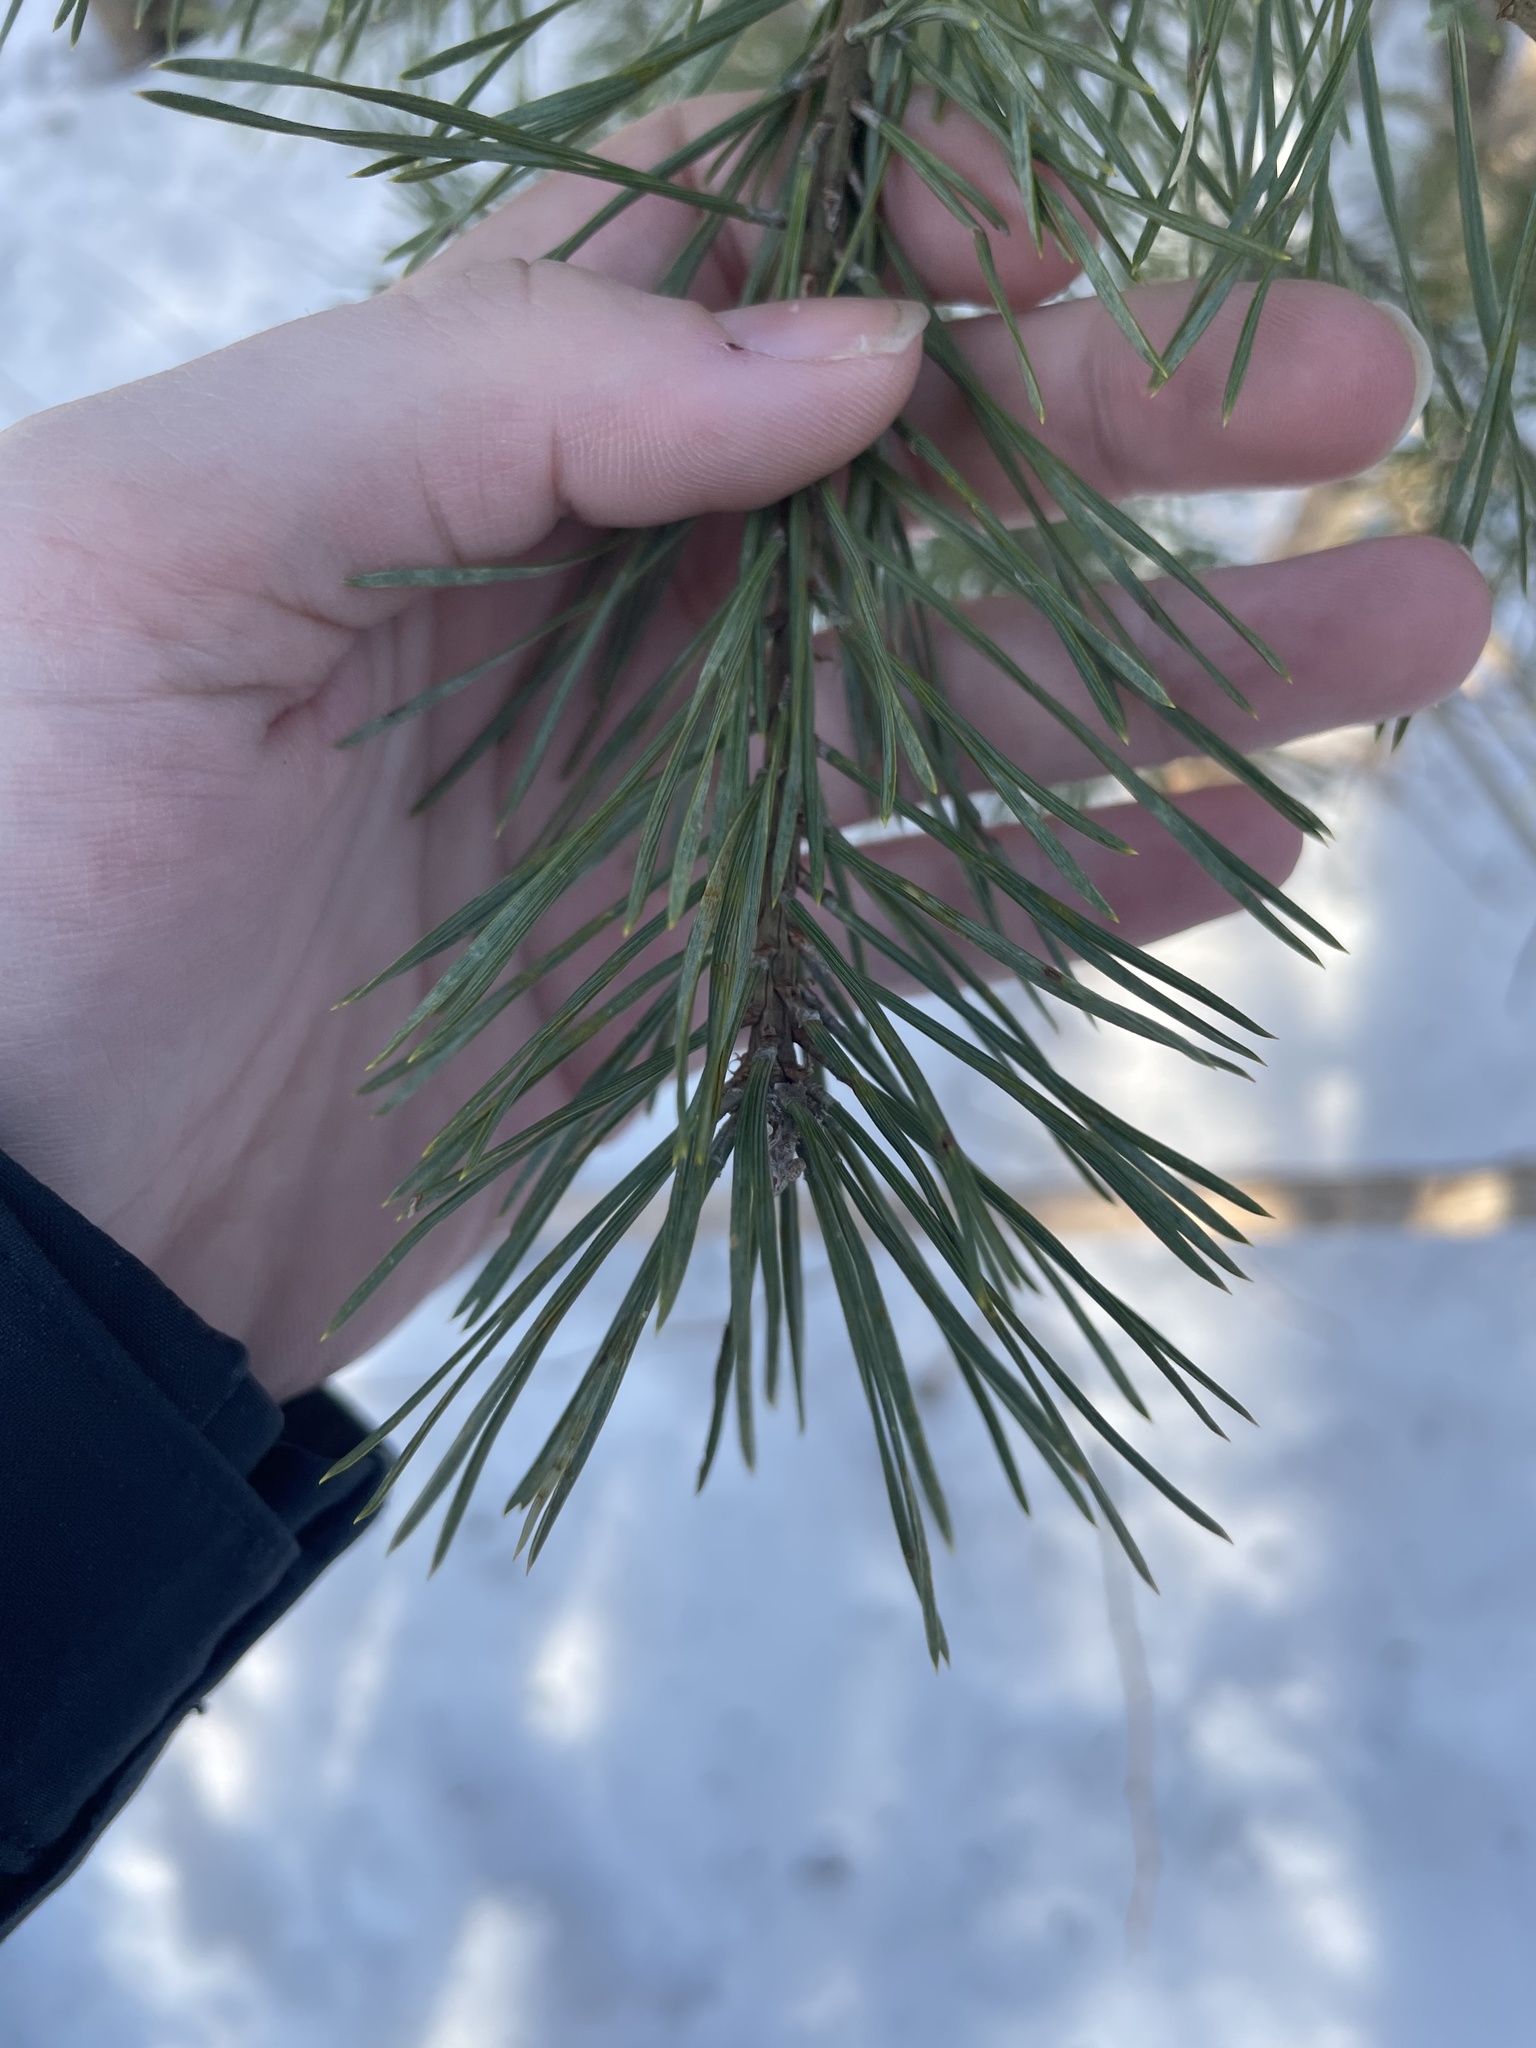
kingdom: Plantae
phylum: Tracheophyta
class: Pinopsida
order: Pinales
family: Pinaceae
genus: Pinus
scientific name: Pinus sylvestris
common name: Scots pine
